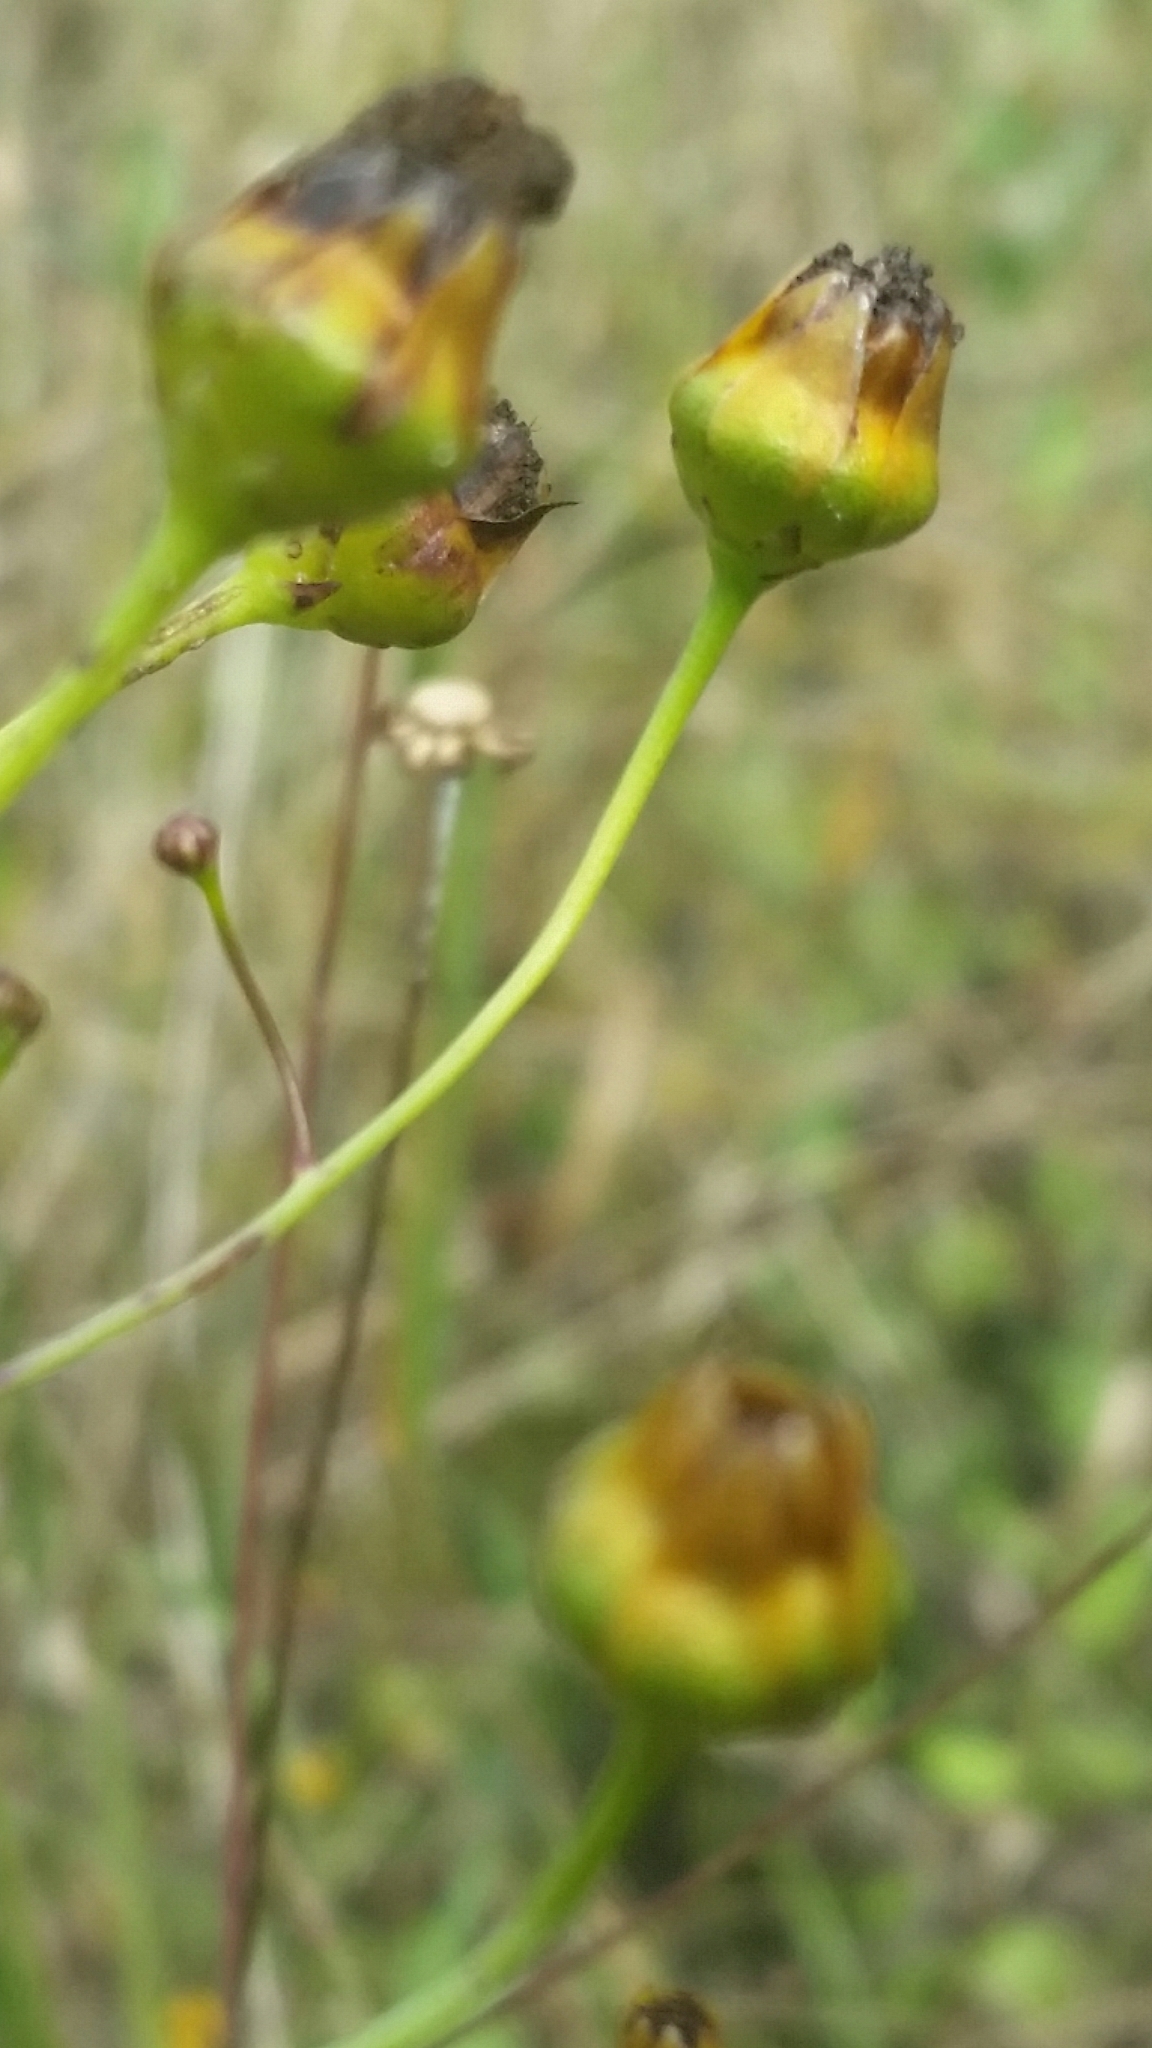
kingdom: Plantae
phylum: Tracheophyta
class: Magnoliopsida
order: Asterales
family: Asteraceae
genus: Coreopsis
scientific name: Coreopsis leavenworthii
